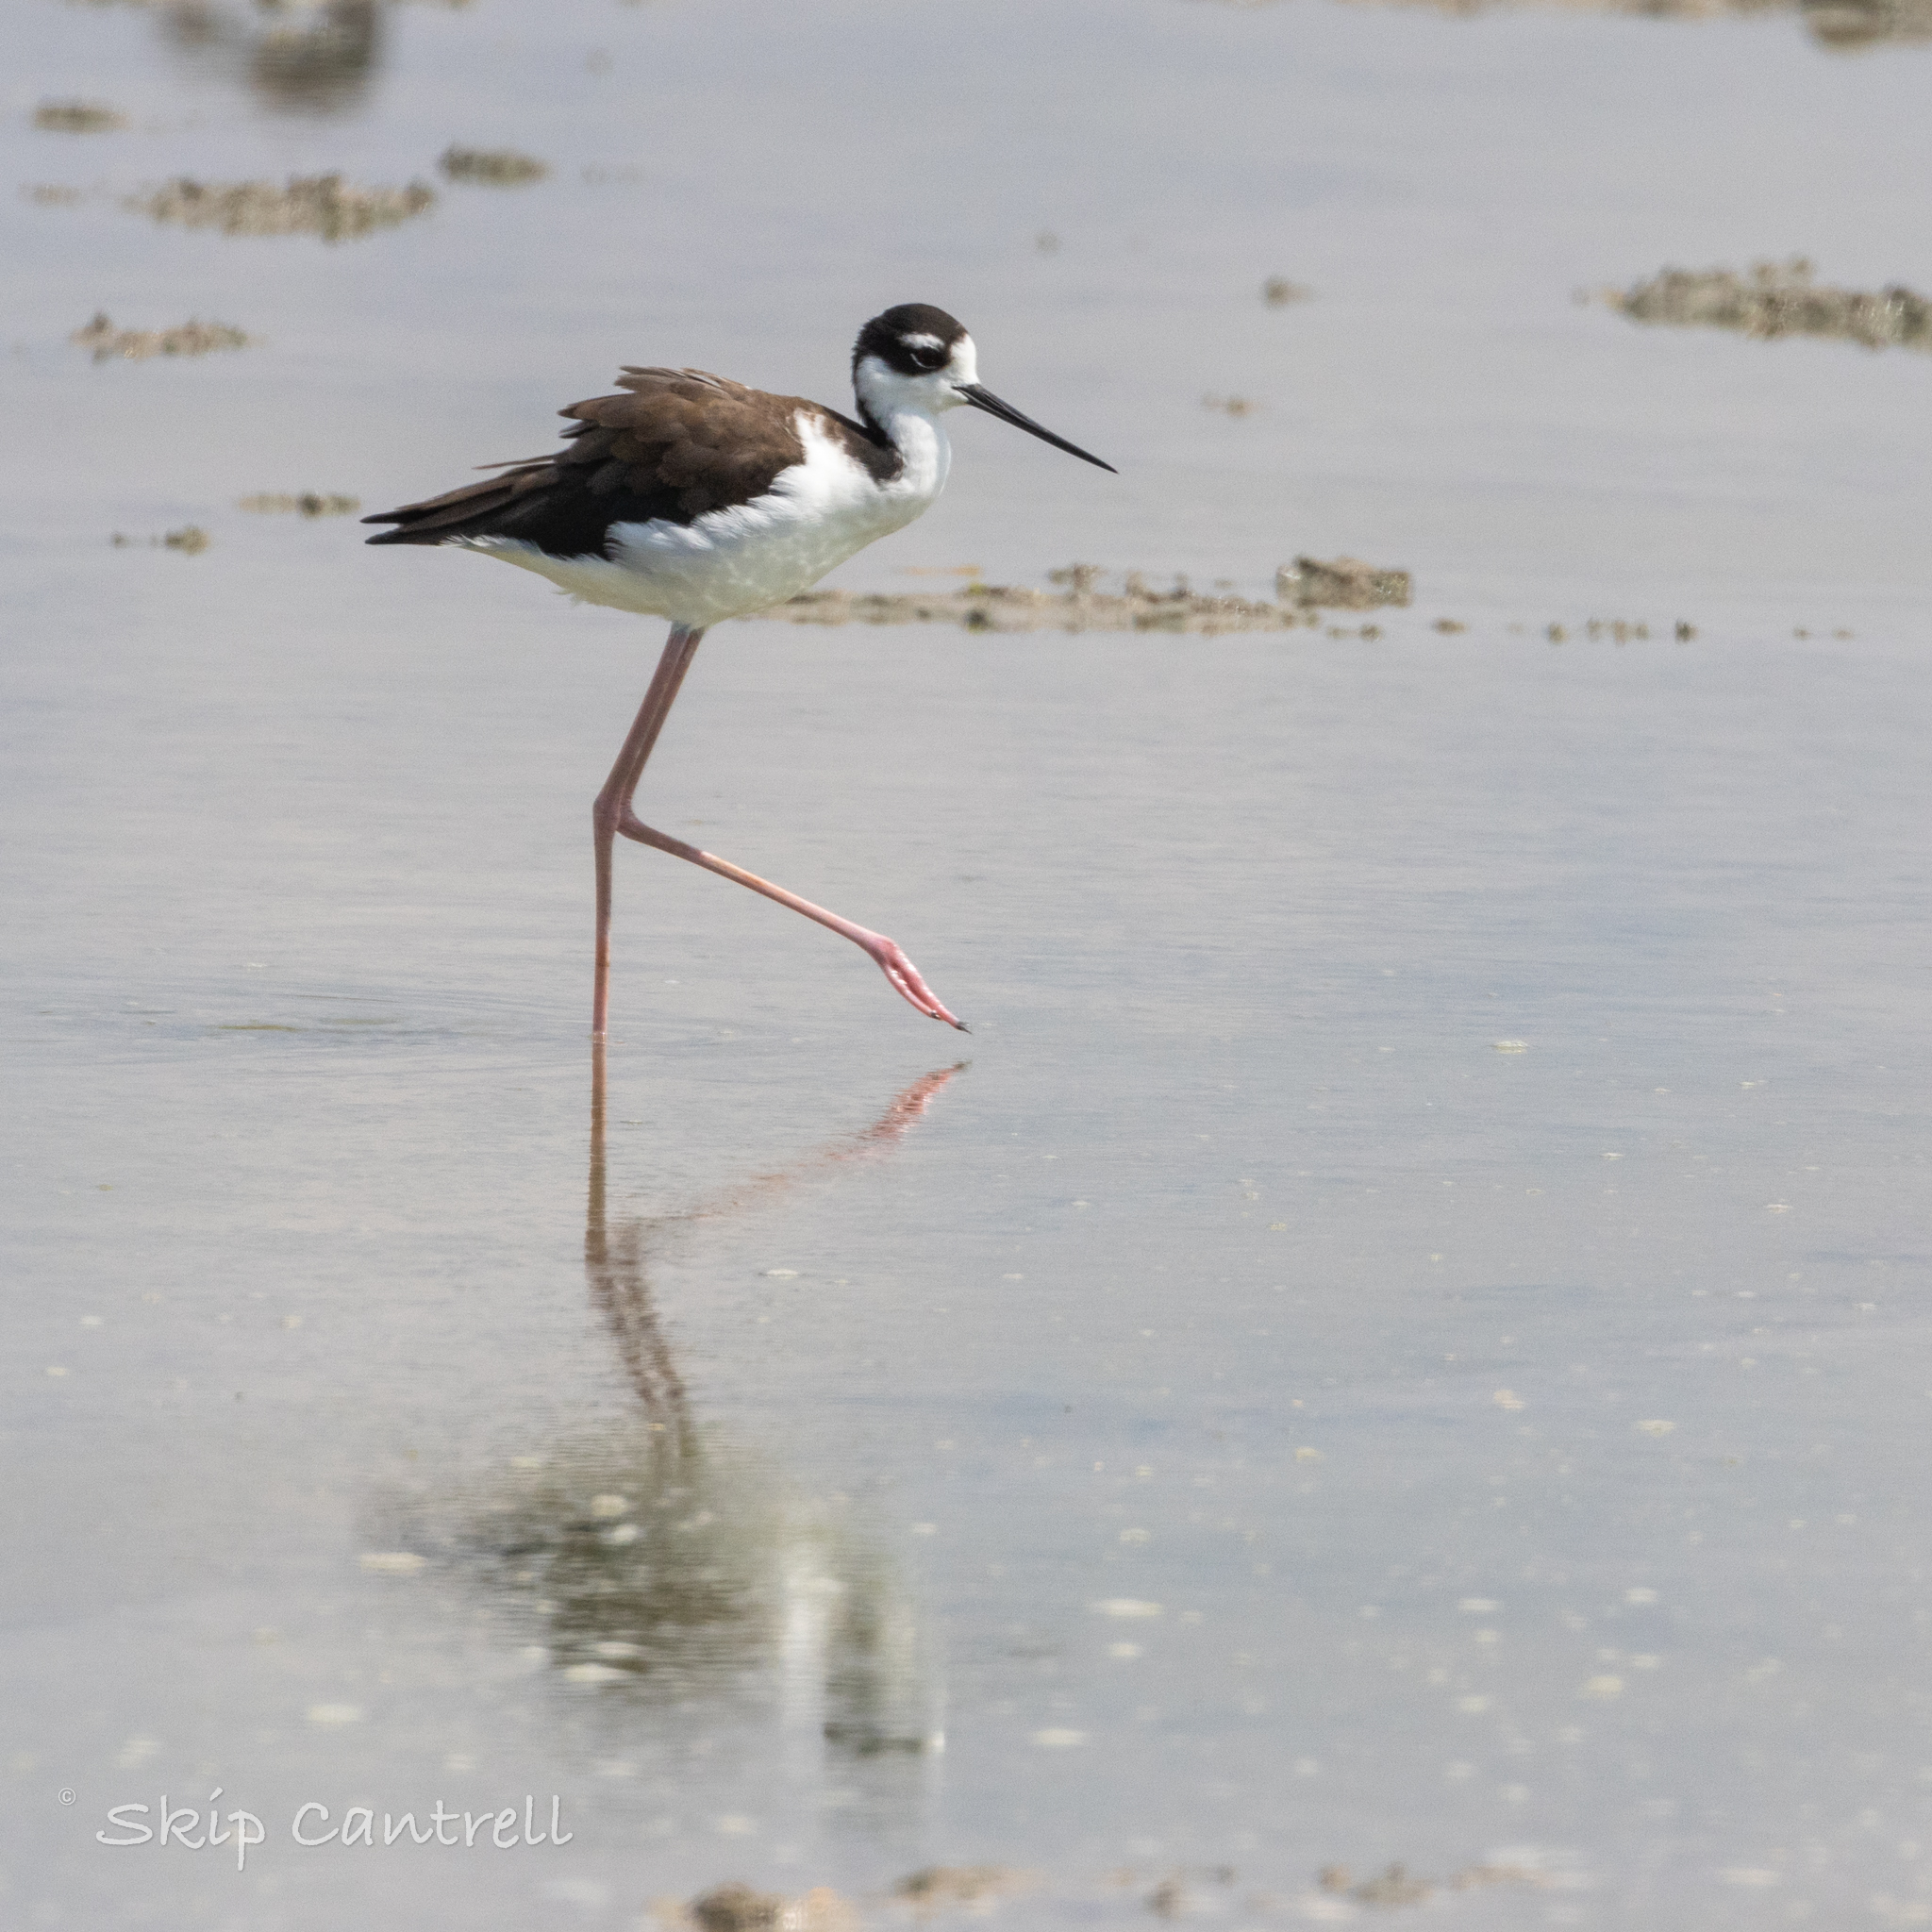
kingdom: Animalia
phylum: Chordata
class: Aves
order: Charadriiformes
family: Recurvirostridae
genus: Himantopus
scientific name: Himantopus mexicanus
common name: Black-necked stilt
